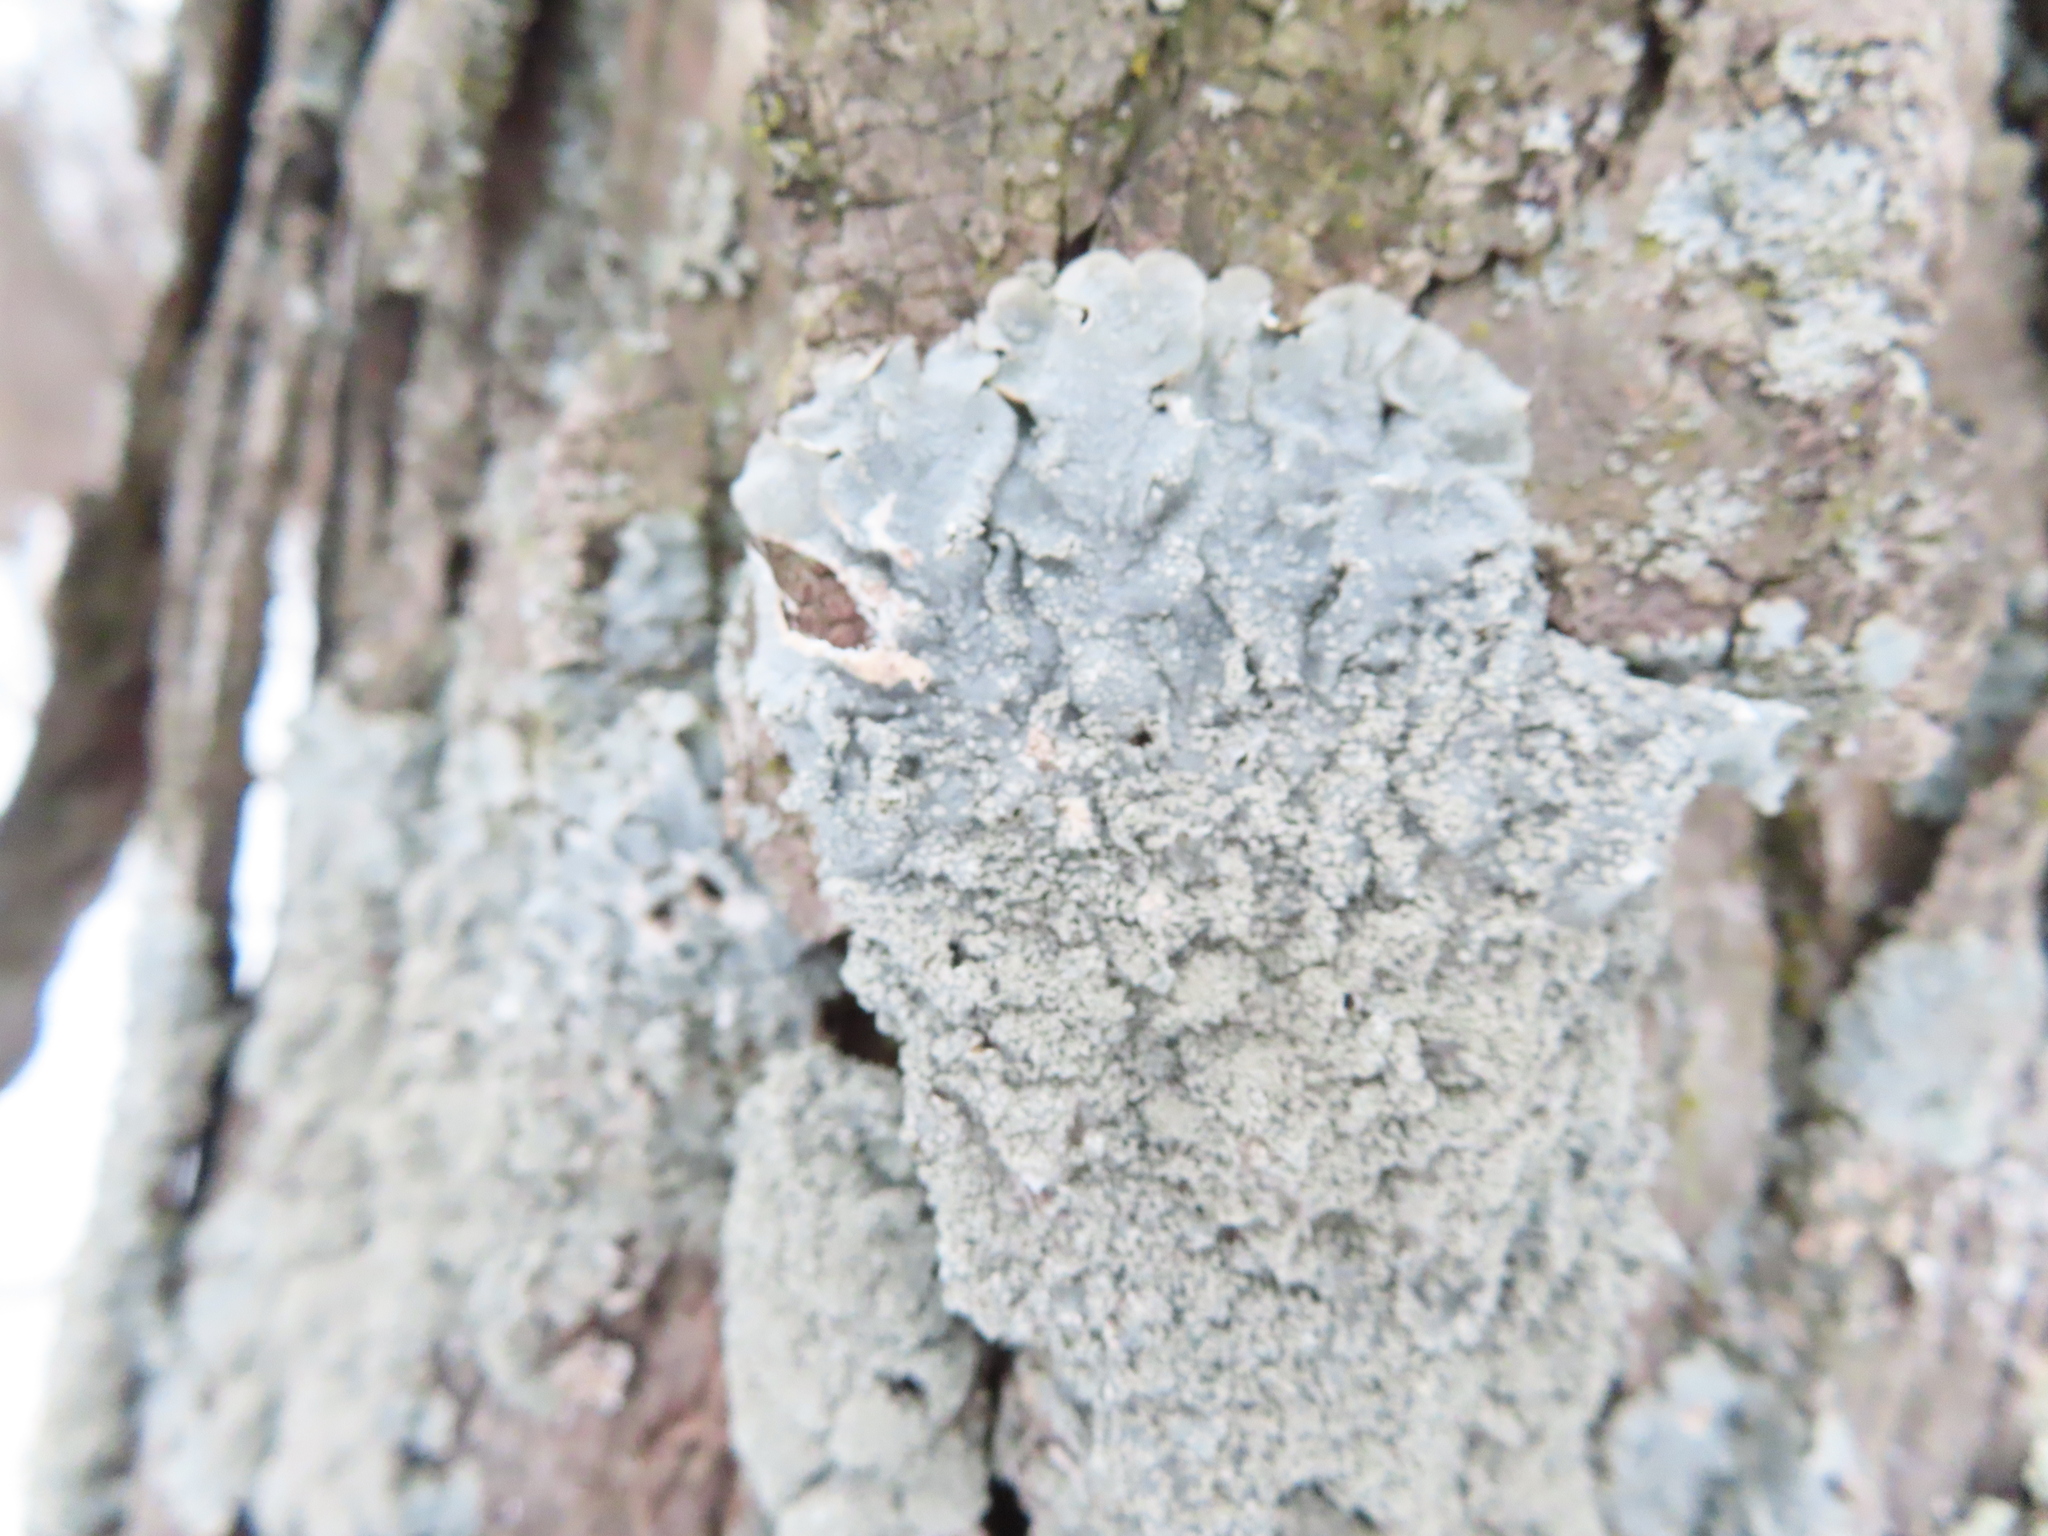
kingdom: Fungi
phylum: Ascomycota
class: Lecanoromycetes
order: Lecanorales
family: Parmeliaceae
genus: Punctelia
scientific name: Punctelia missouriensis
